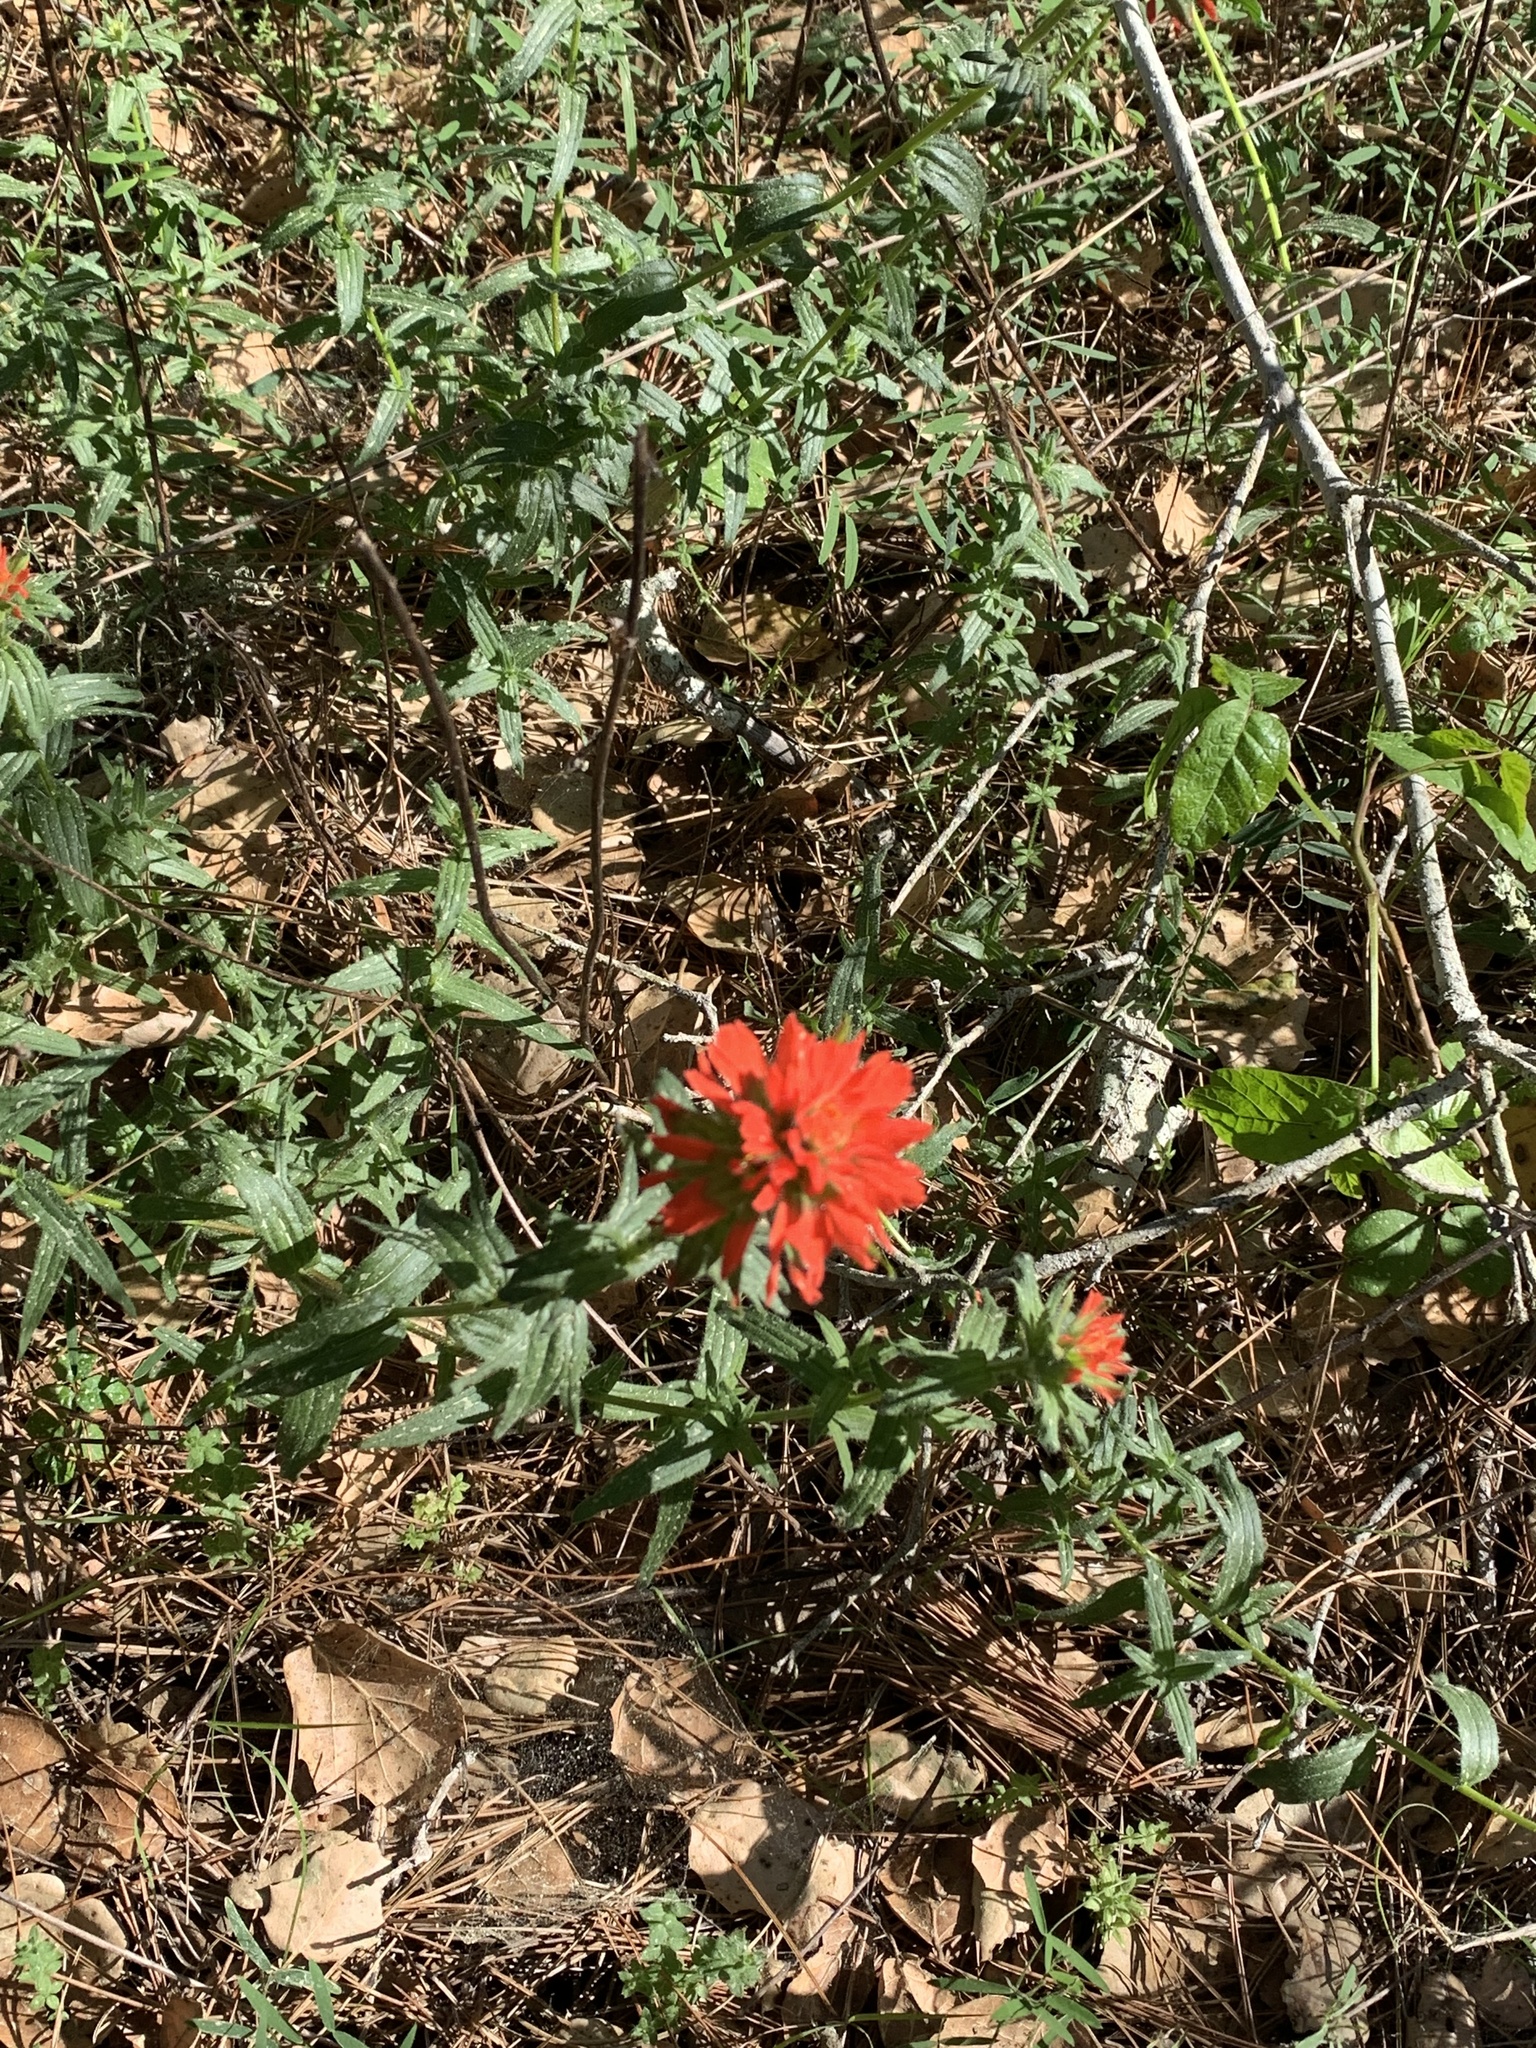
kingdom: Plantae
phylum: Tracheophyta
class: Magnoliopsida
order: Lamiales
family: Orobanchaceae
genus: Castilleja
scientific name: Castilleja affinis
